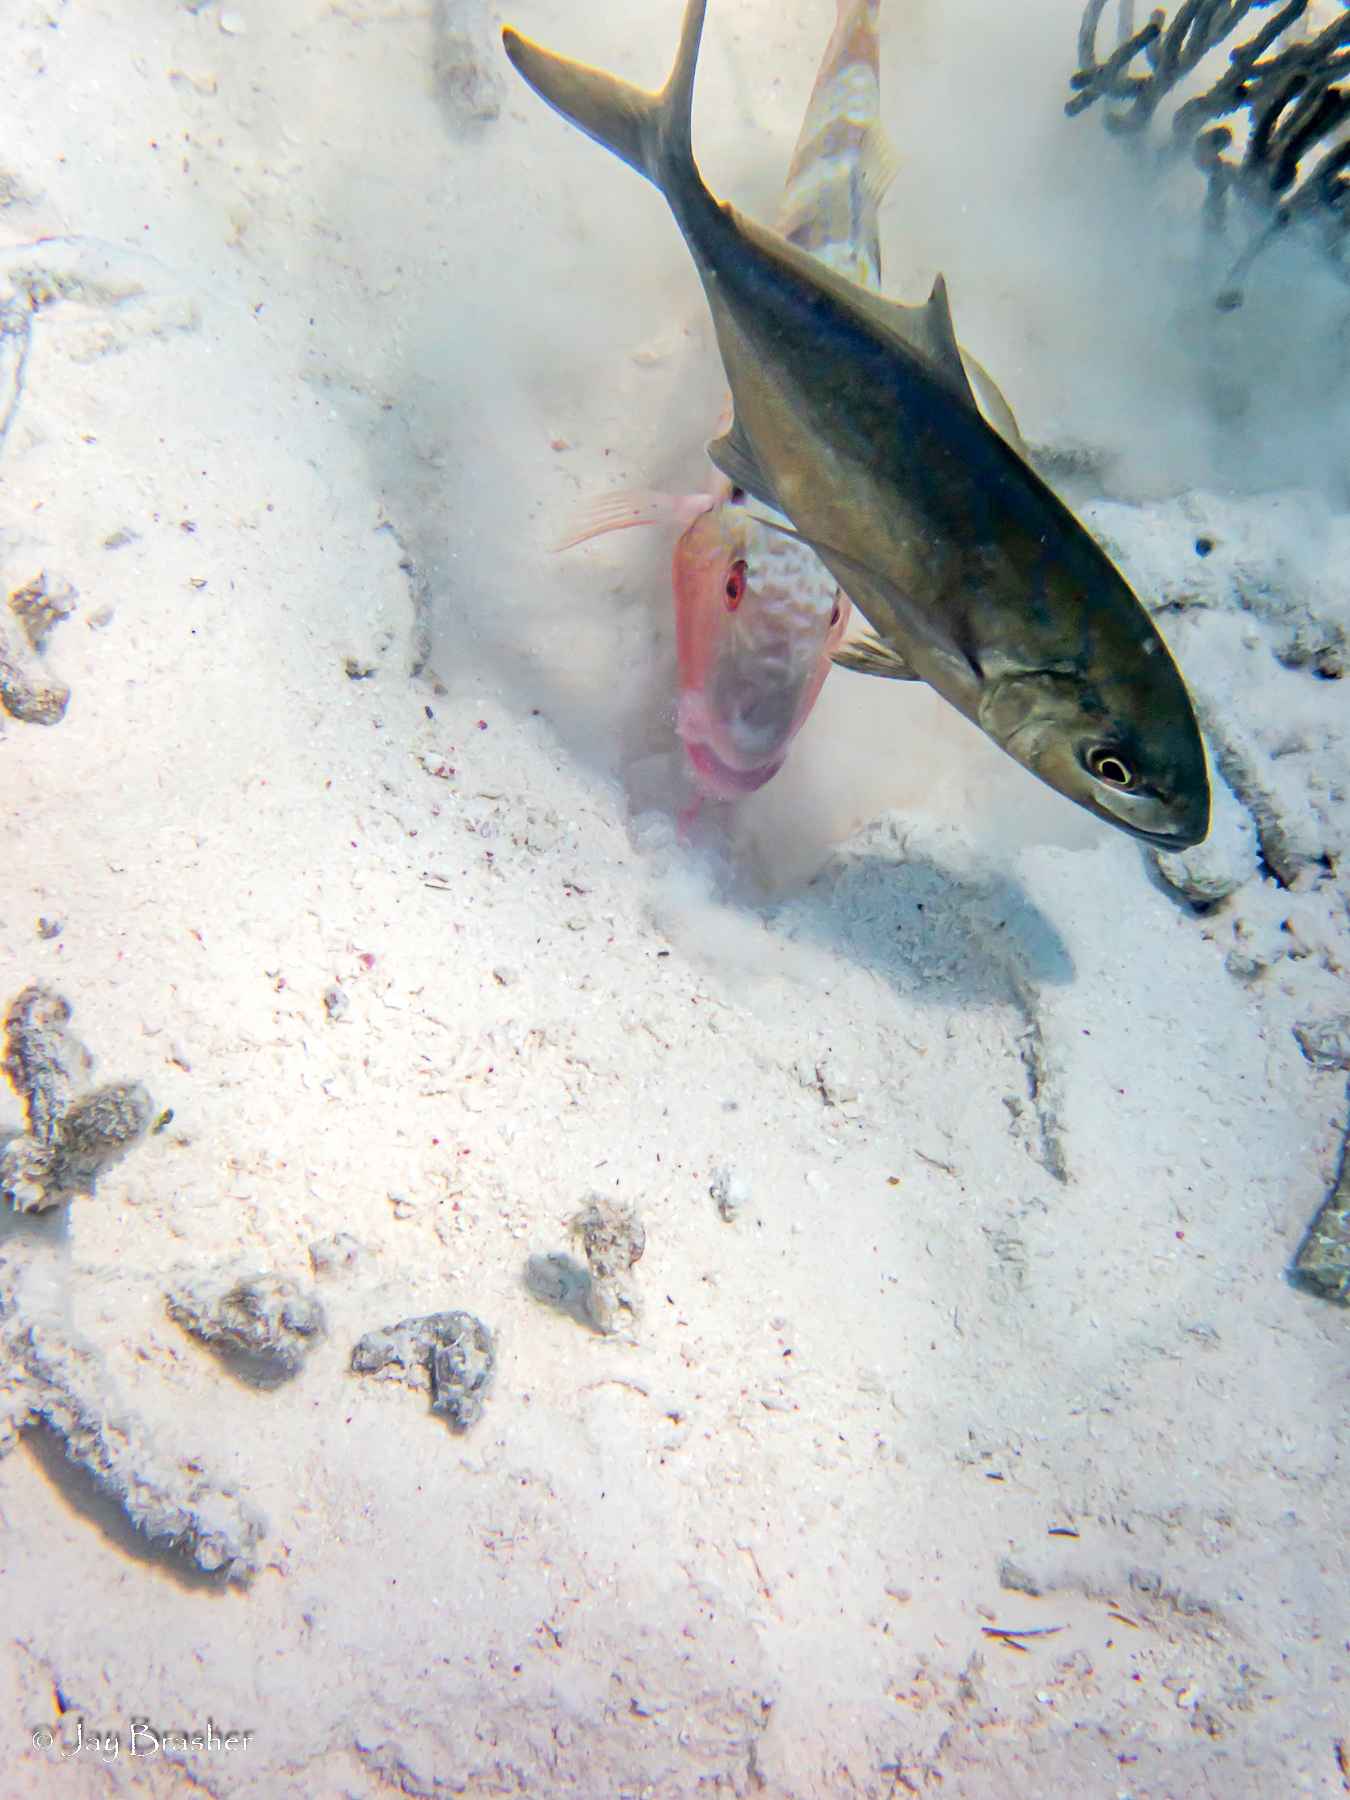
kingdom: Animalia
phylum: Chordata
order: Perciformes
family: Mullidae
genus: Pseudupeneus
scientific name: Pseudupeneus maculatus
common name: Spotted goatfish
